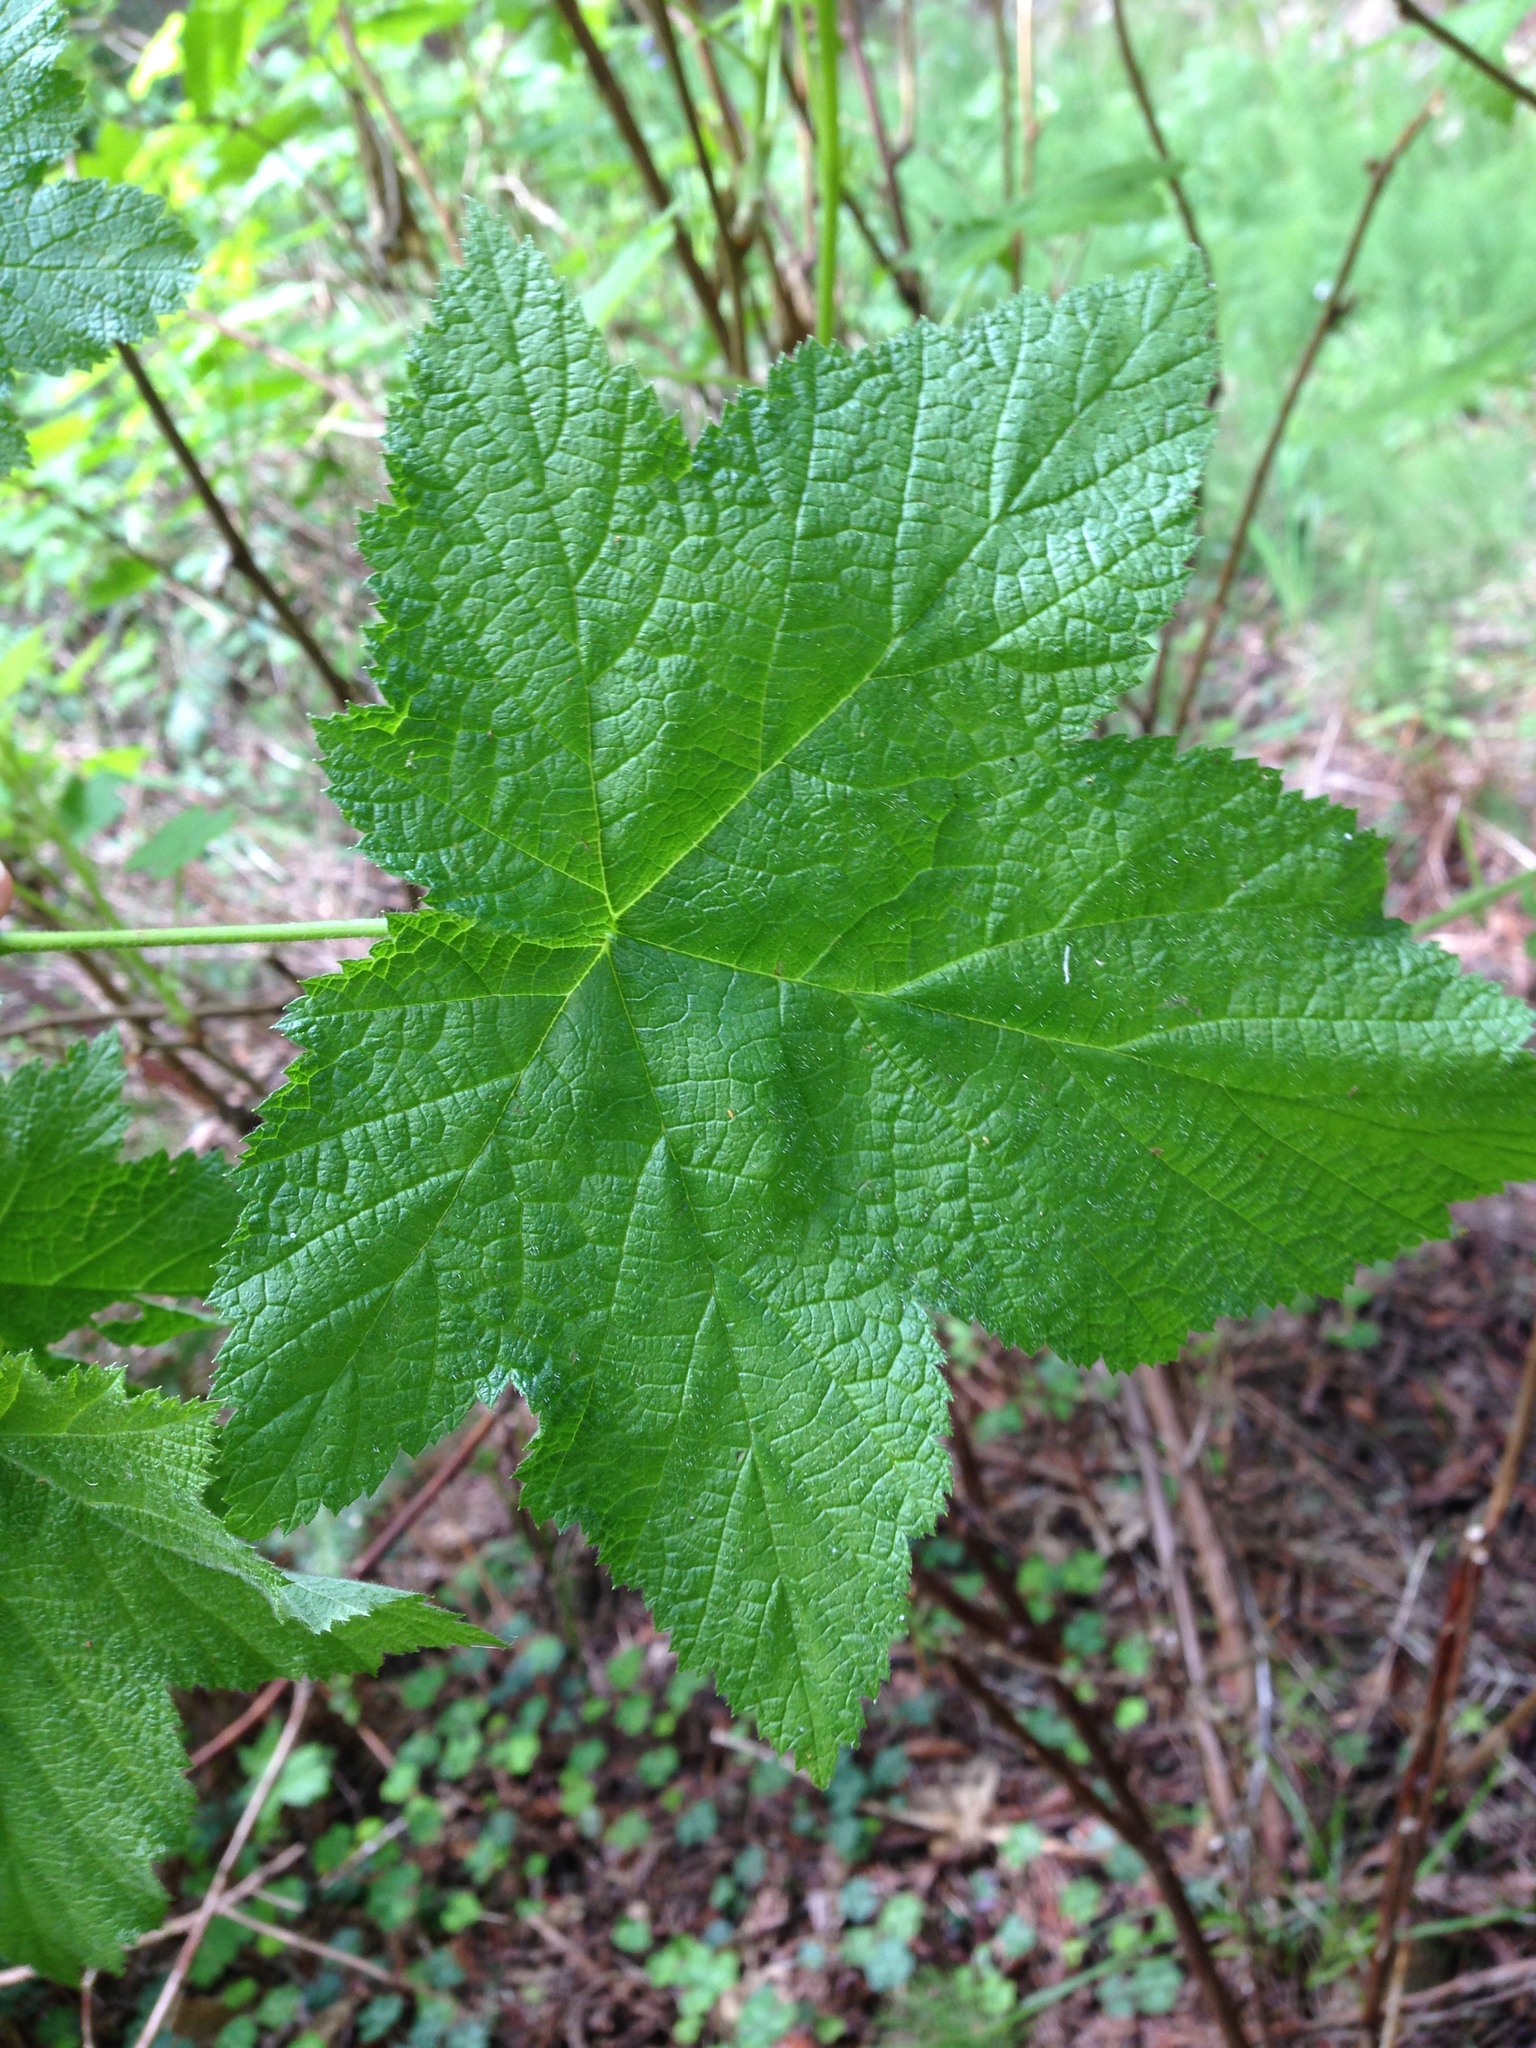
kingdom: Plantae
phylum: Tracheophyta
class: Magnoliopsida
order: Rosales
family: Rosaceae
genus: Rubus
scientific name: Rubus parviflorus
